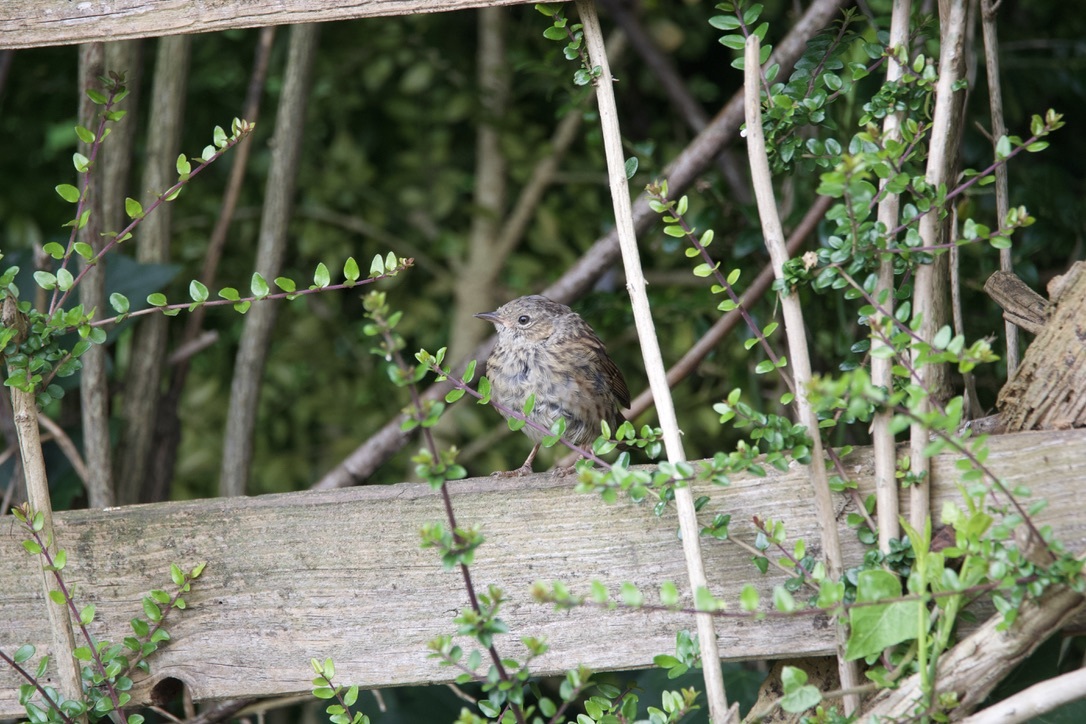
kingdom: Animalia
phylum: Chordata
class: Aves
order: Passeriformes
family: Prunellidae
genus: Prunella
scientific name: Prunella modularis
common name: Dunnock
